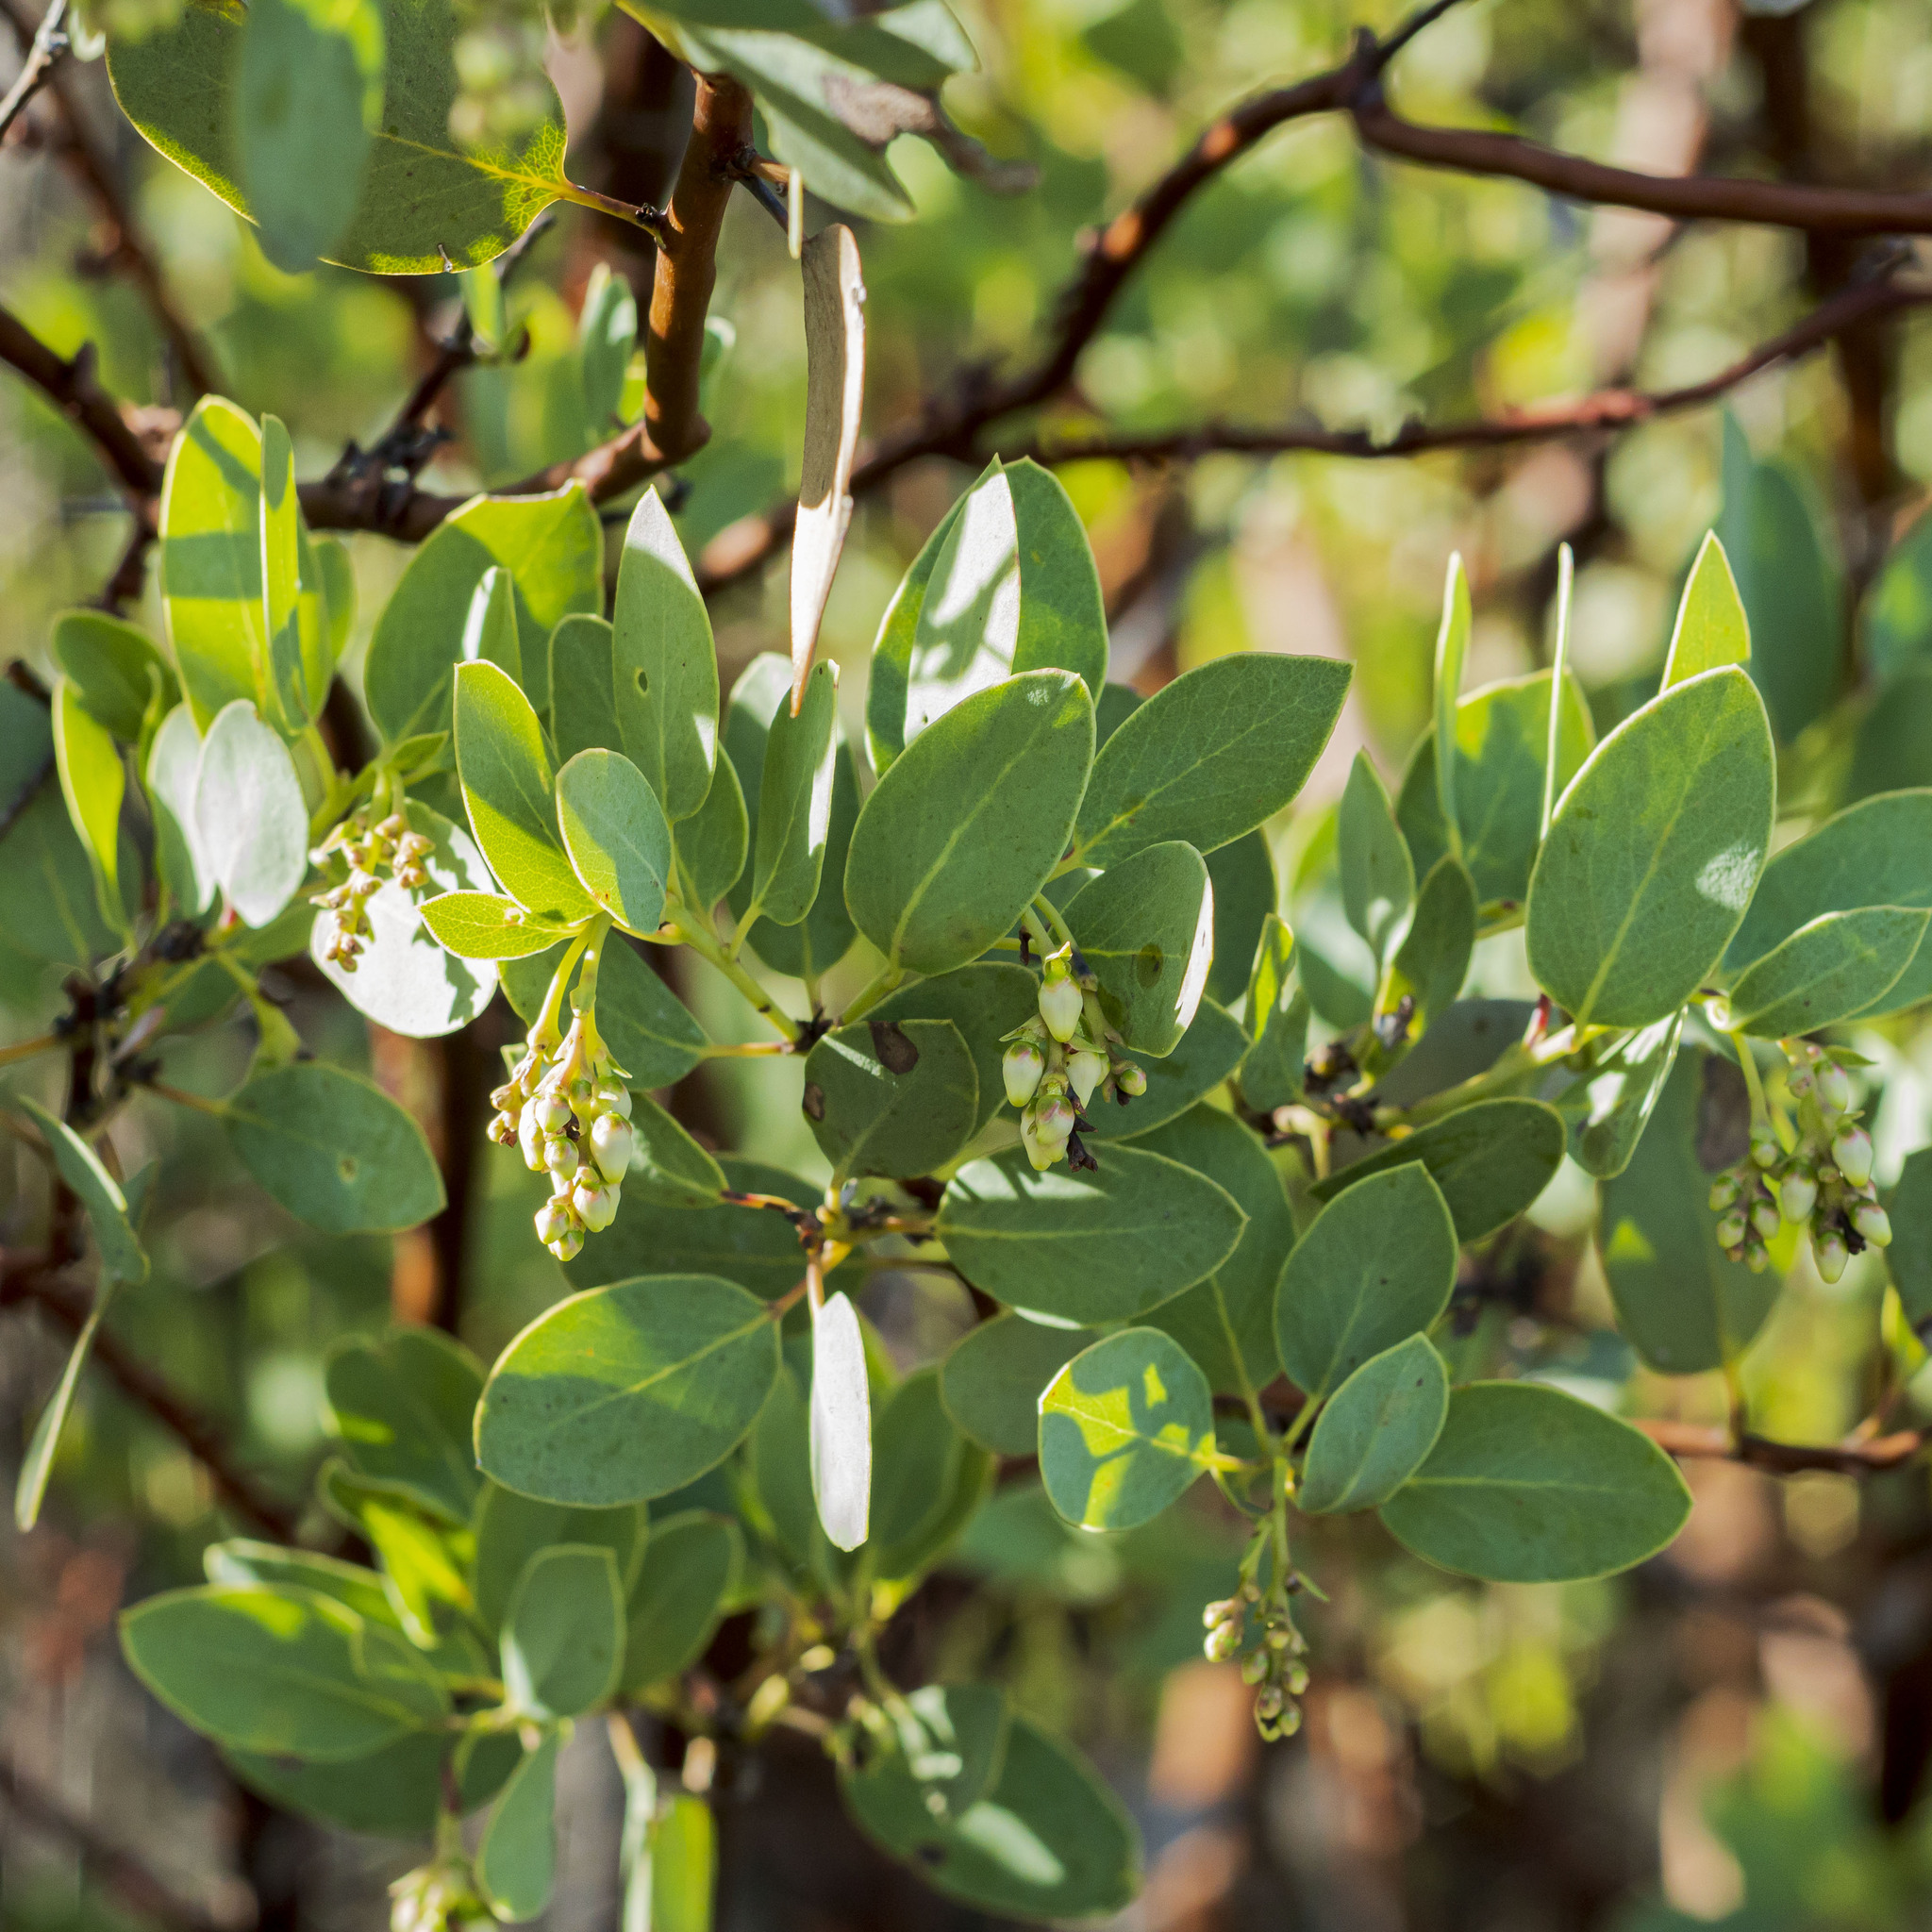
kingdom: Plantae
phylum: Tracheophyta
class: Magnoliopsida
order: Ericales
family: Ericaceae
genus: Arctostaphylos
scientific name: Arctostaphylos glauca
